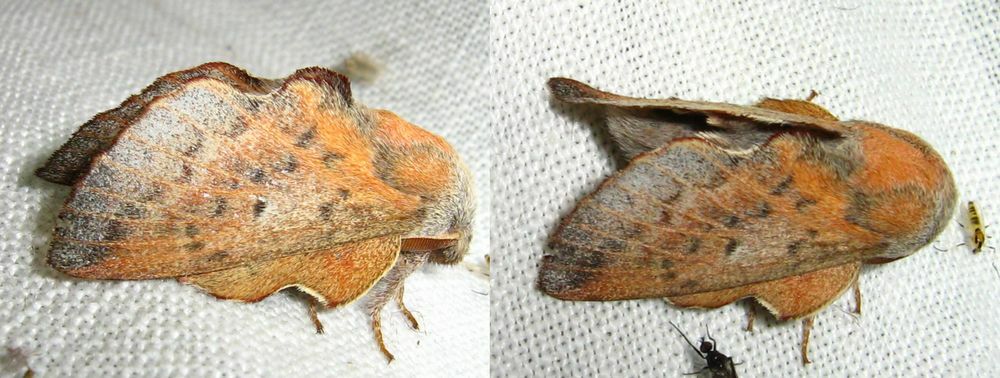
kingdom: Animalia
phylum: Arthropoda
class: Insecta
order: Lepidoptera
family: Lasiocampidae
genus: Phyllodesma
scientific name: Phyllodesma tremulifolia
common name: Aspen lappet
